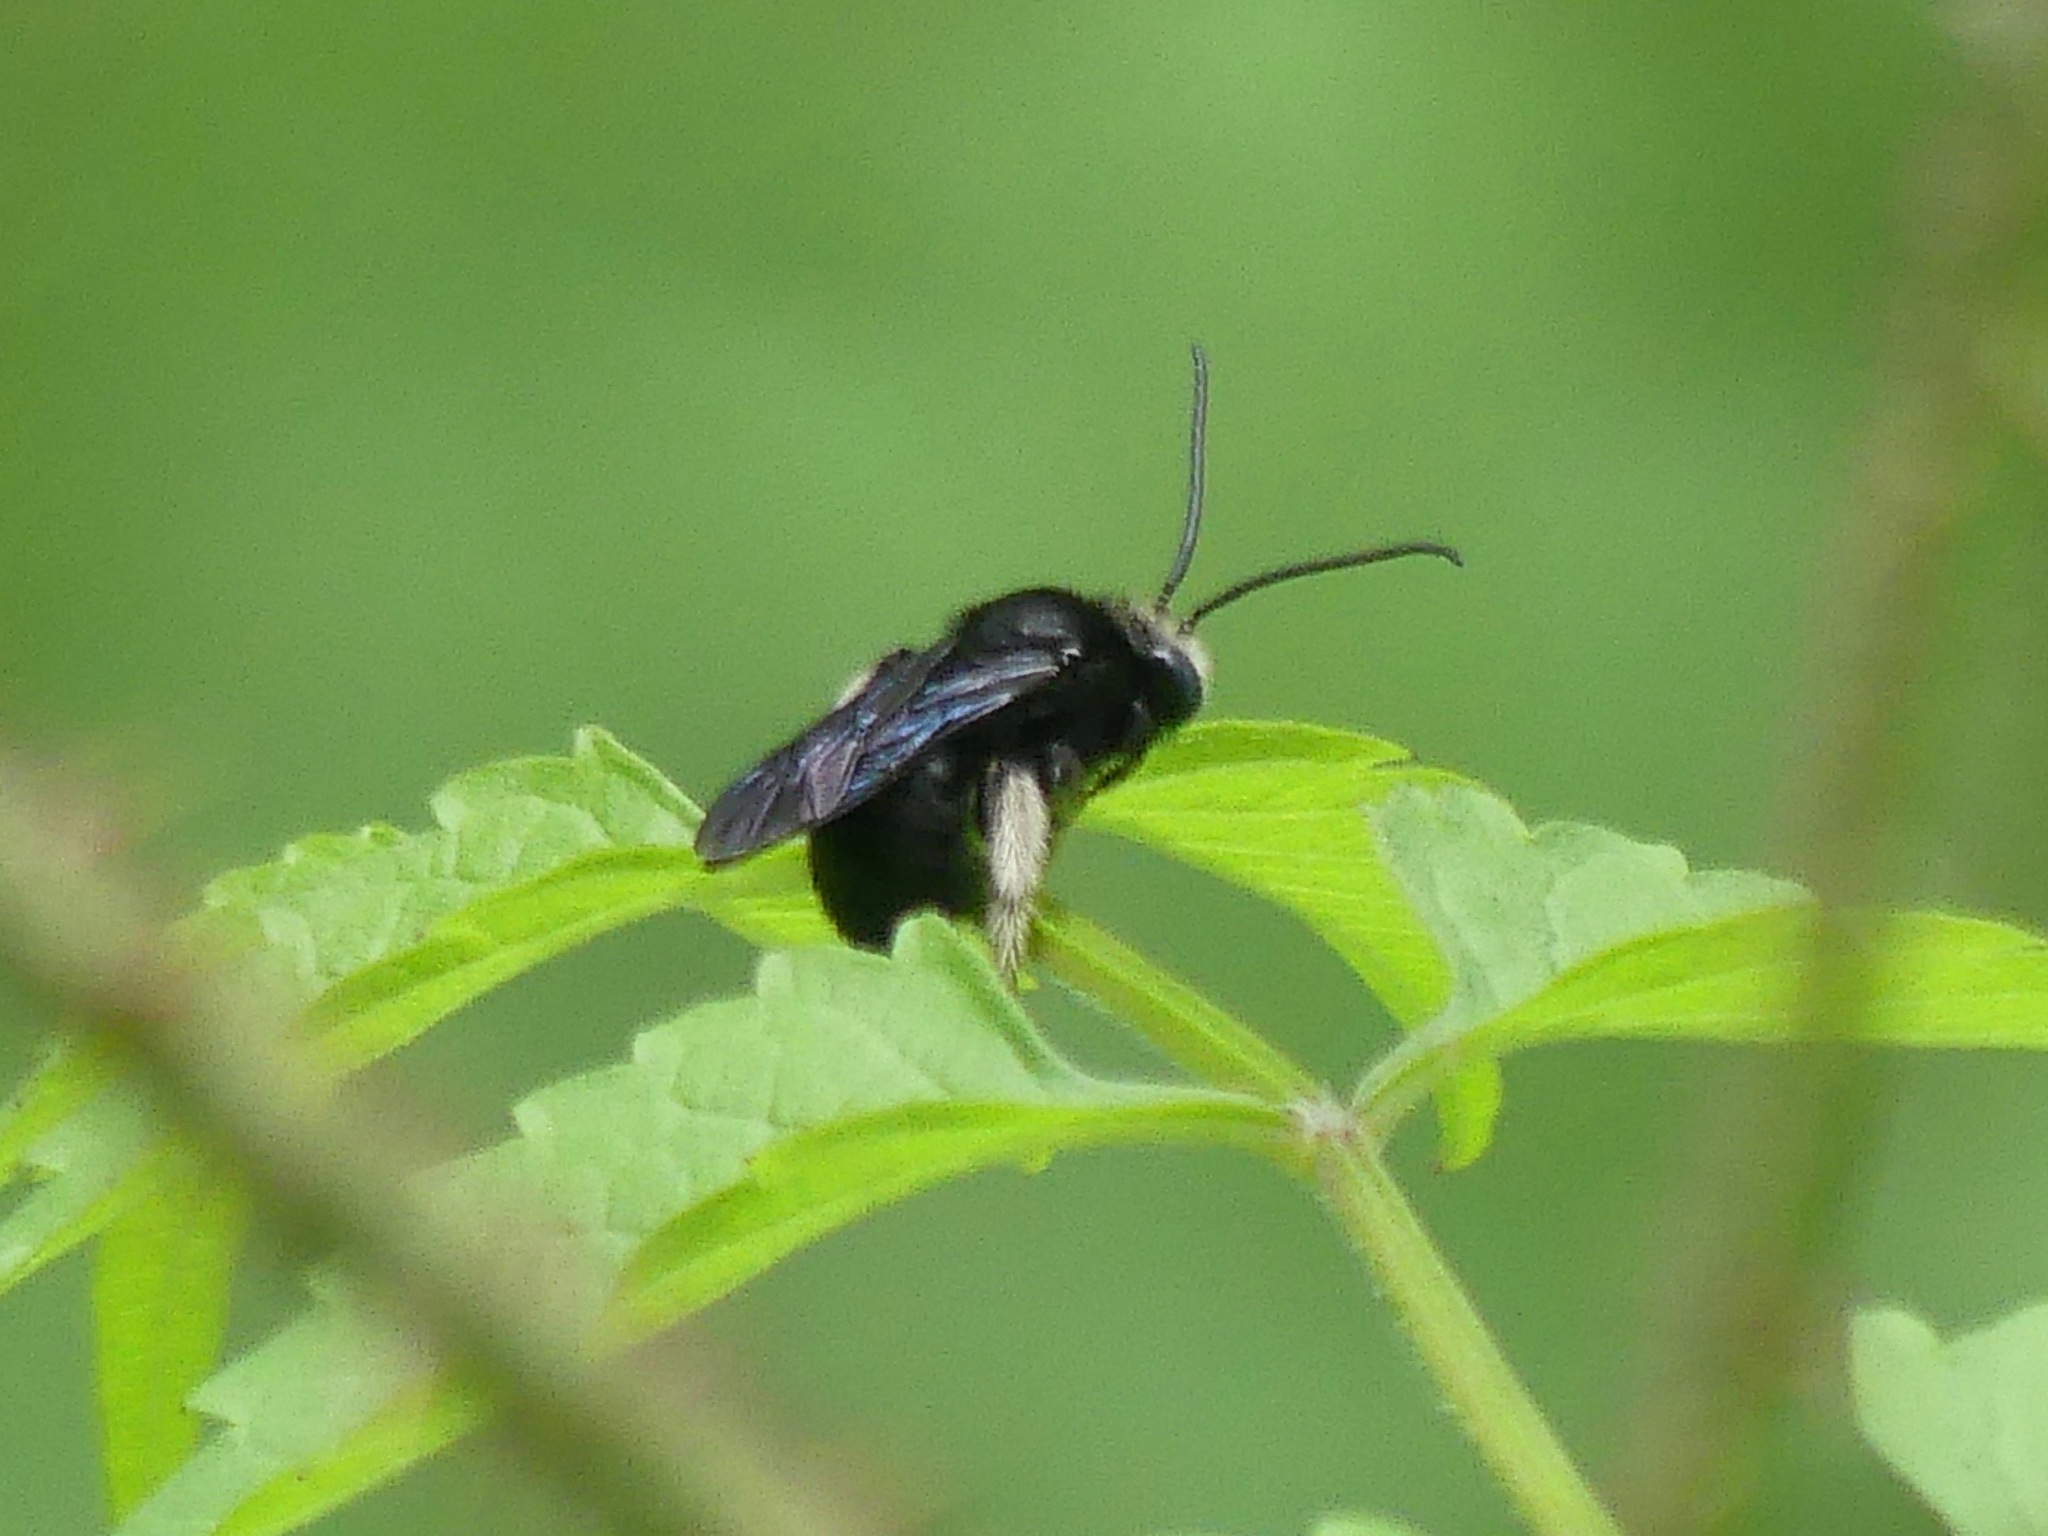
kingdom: Animalia
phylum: Arthropoda
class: Insecta
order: Hymenoptera
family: Apidae
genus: Melissodes
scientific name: Melissodes bimaculatus
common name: Two-spotted long-horned bee
